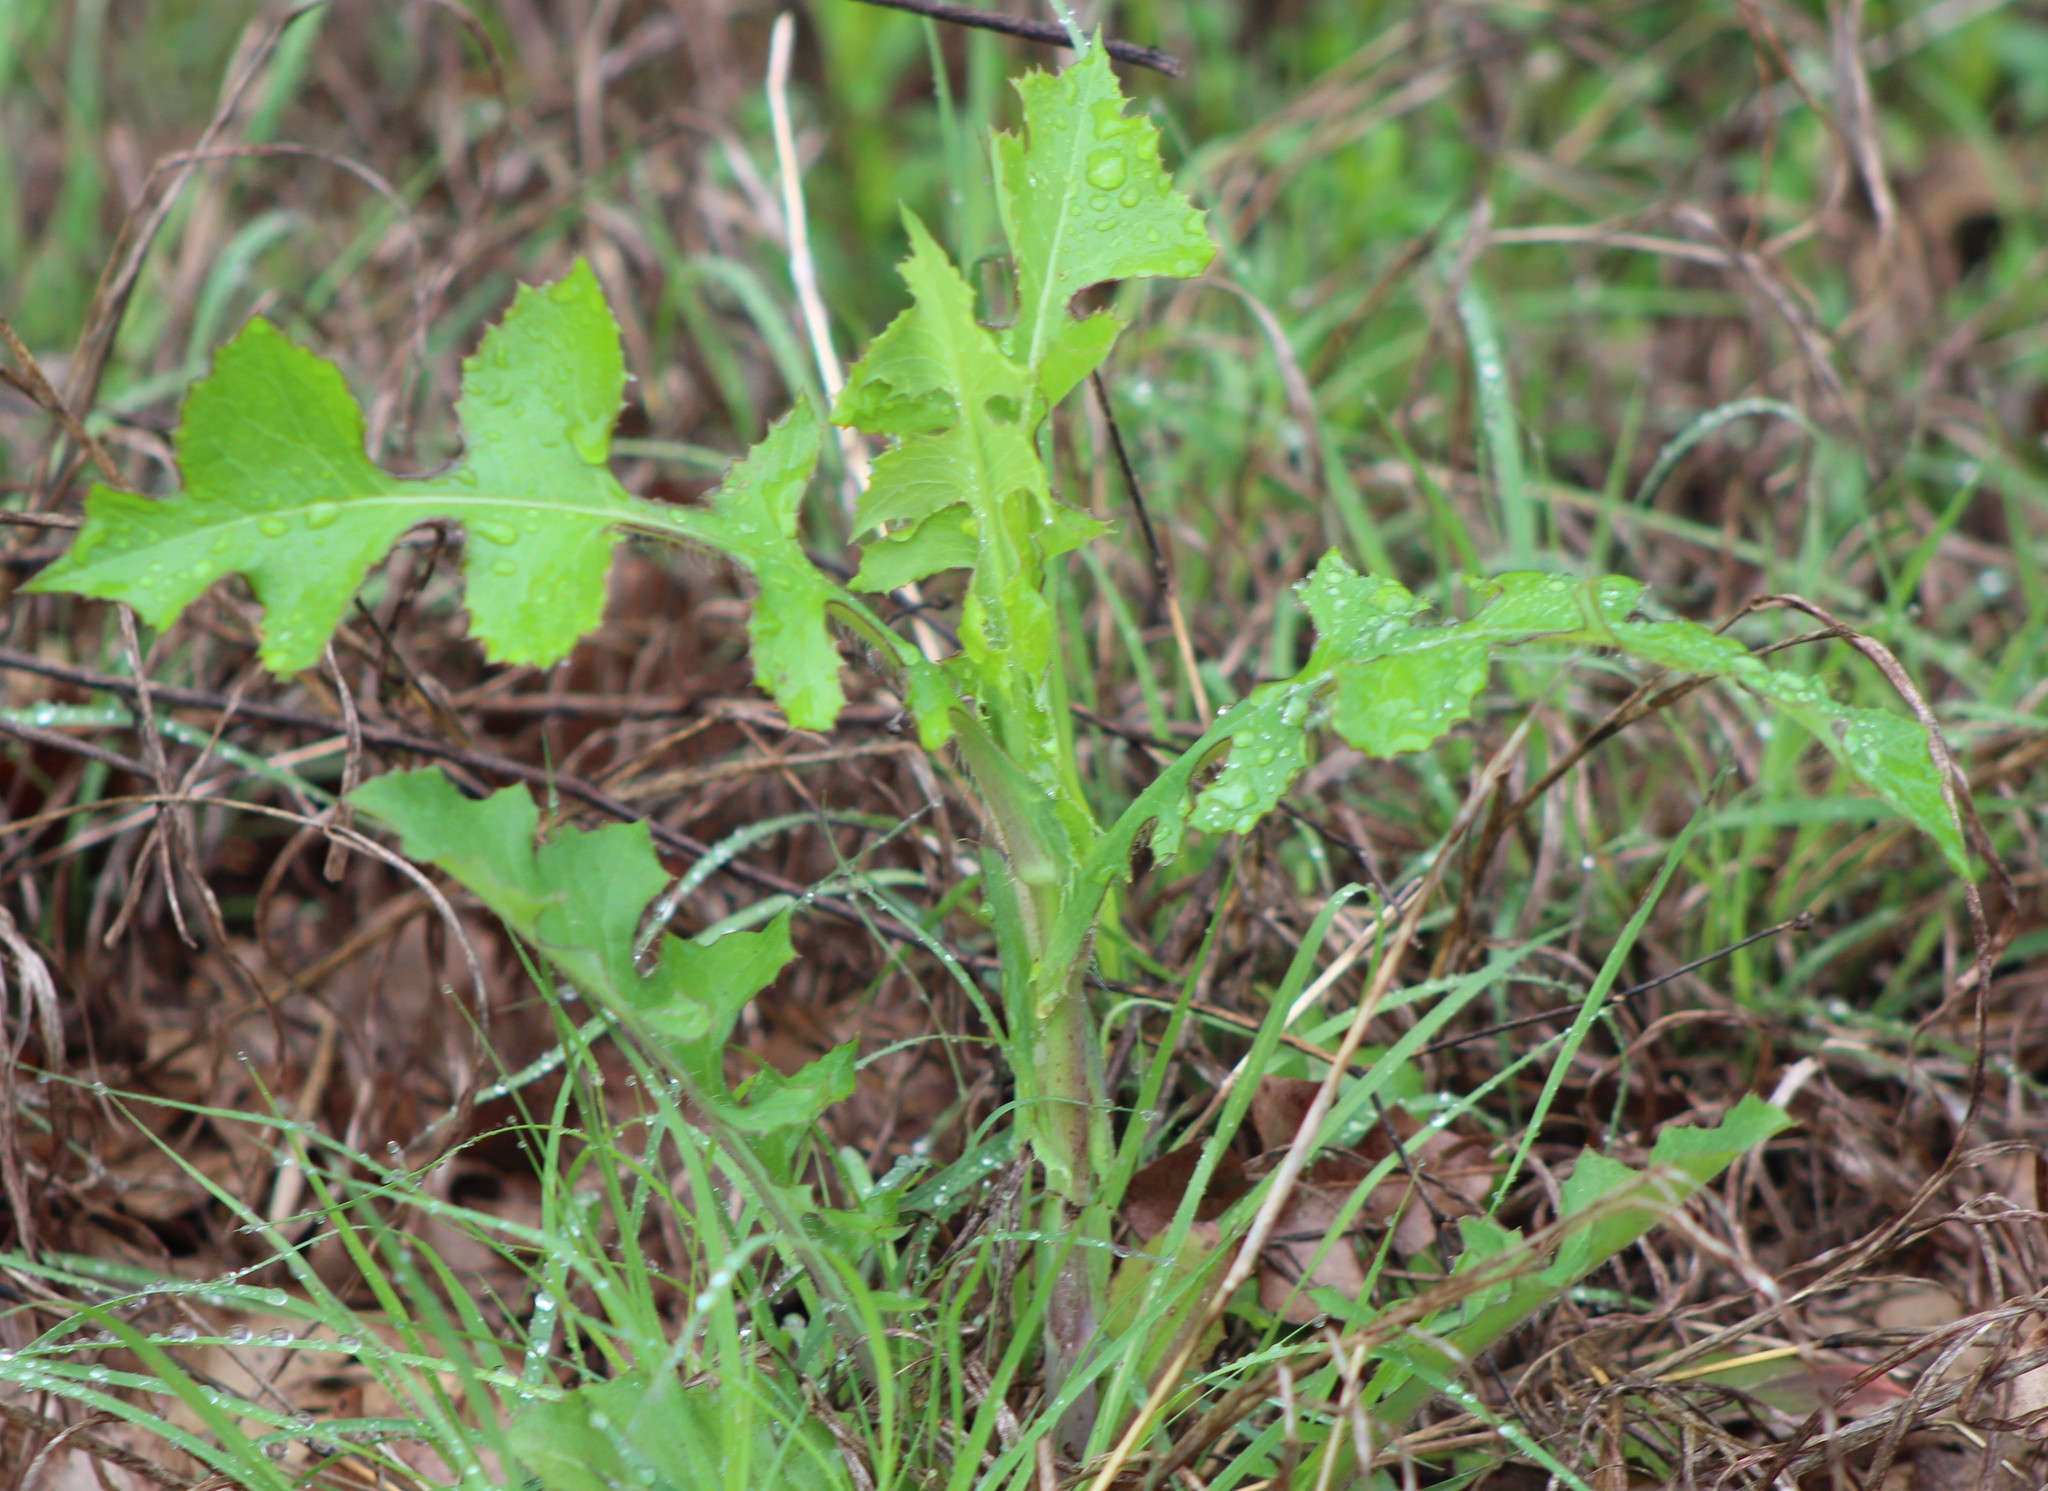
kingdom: Plantae
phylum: Tracheophyta
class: Magnoliopsida
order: Asterales
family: Asteraceae
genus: Lactuca
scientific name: Lactuca floridana
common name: Woodland lettuce
